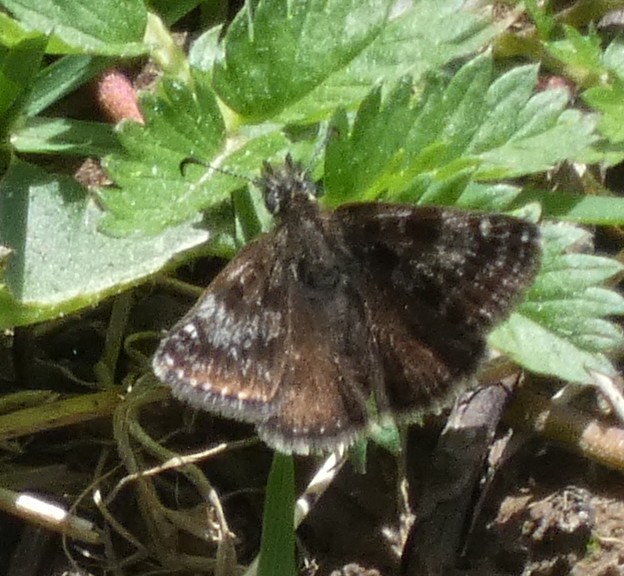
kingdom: Animalia
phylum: Arthropoda
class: Insecta
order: Lepidoptera
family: Hesperiidae
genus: Erynnis
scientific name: Erynnis tages
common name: Dingy skipper
